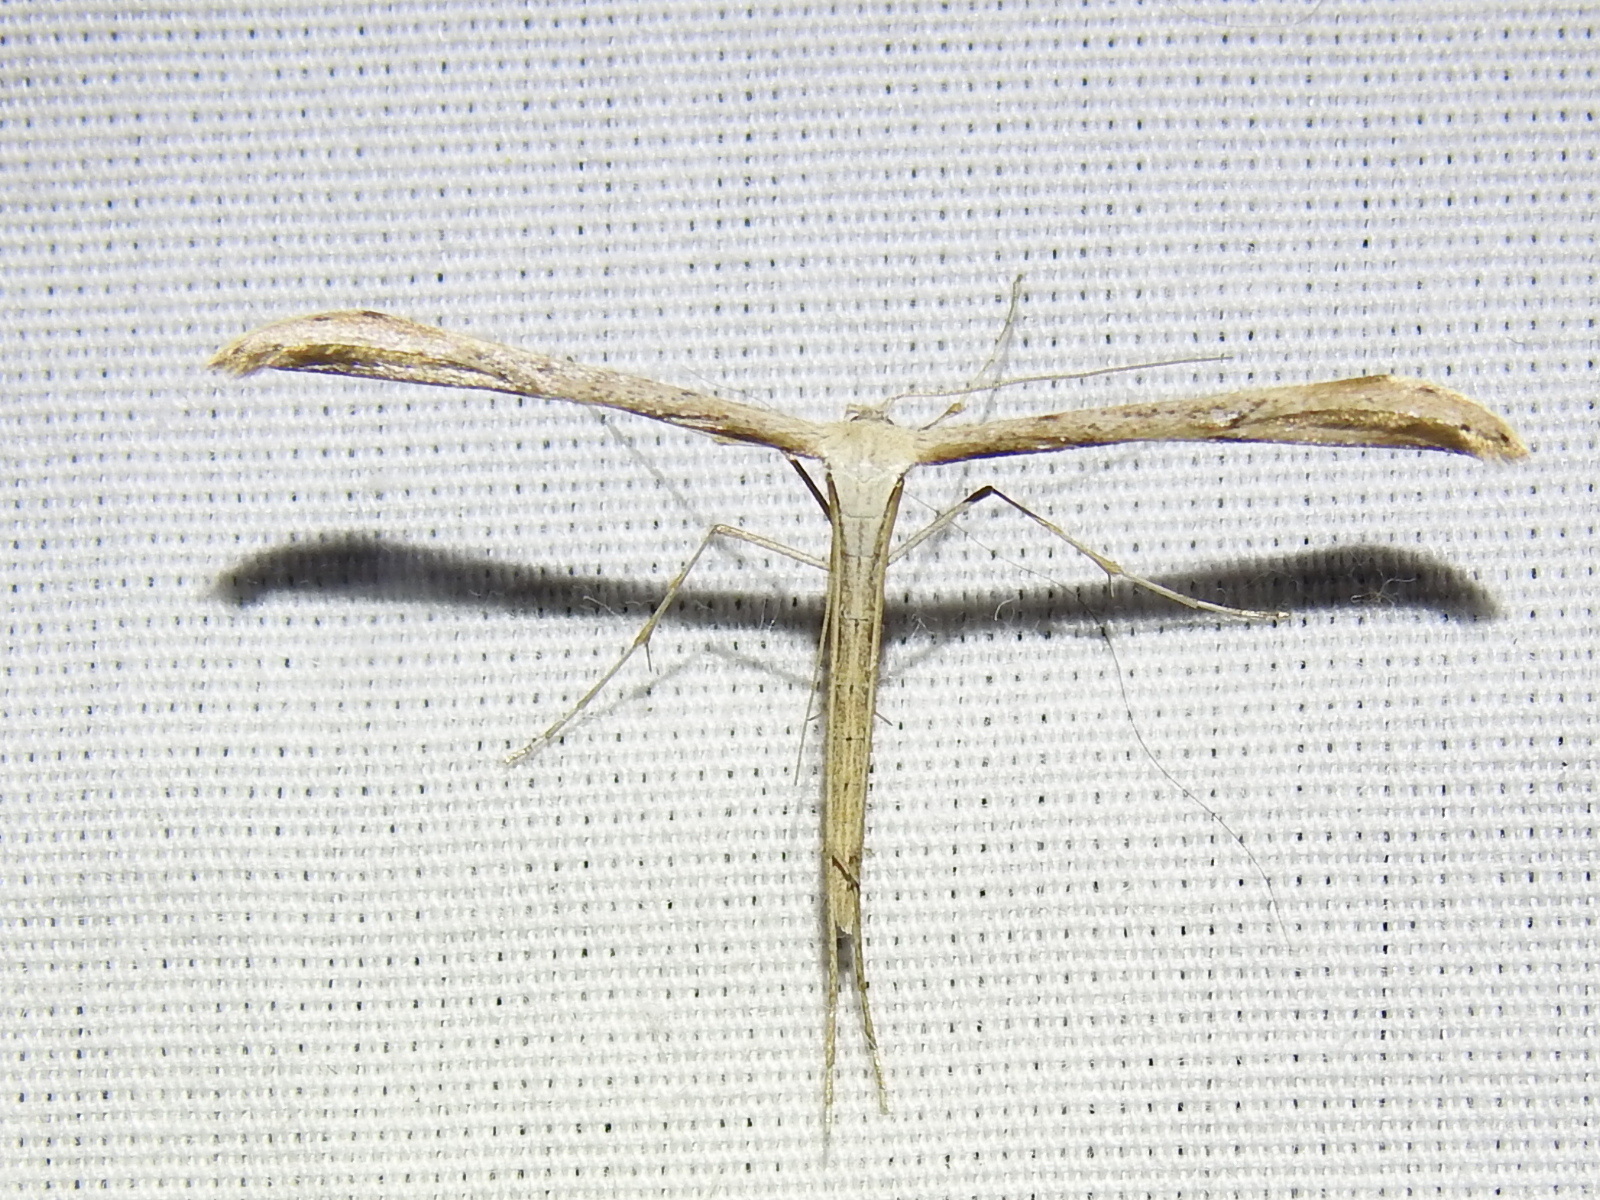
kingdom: Animalia
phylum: Arthropoda
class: Insecta
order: Lepidoptera
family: Pterophoridae
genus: Emmelina
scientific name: Emmelina monodactyla
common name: Common plume
